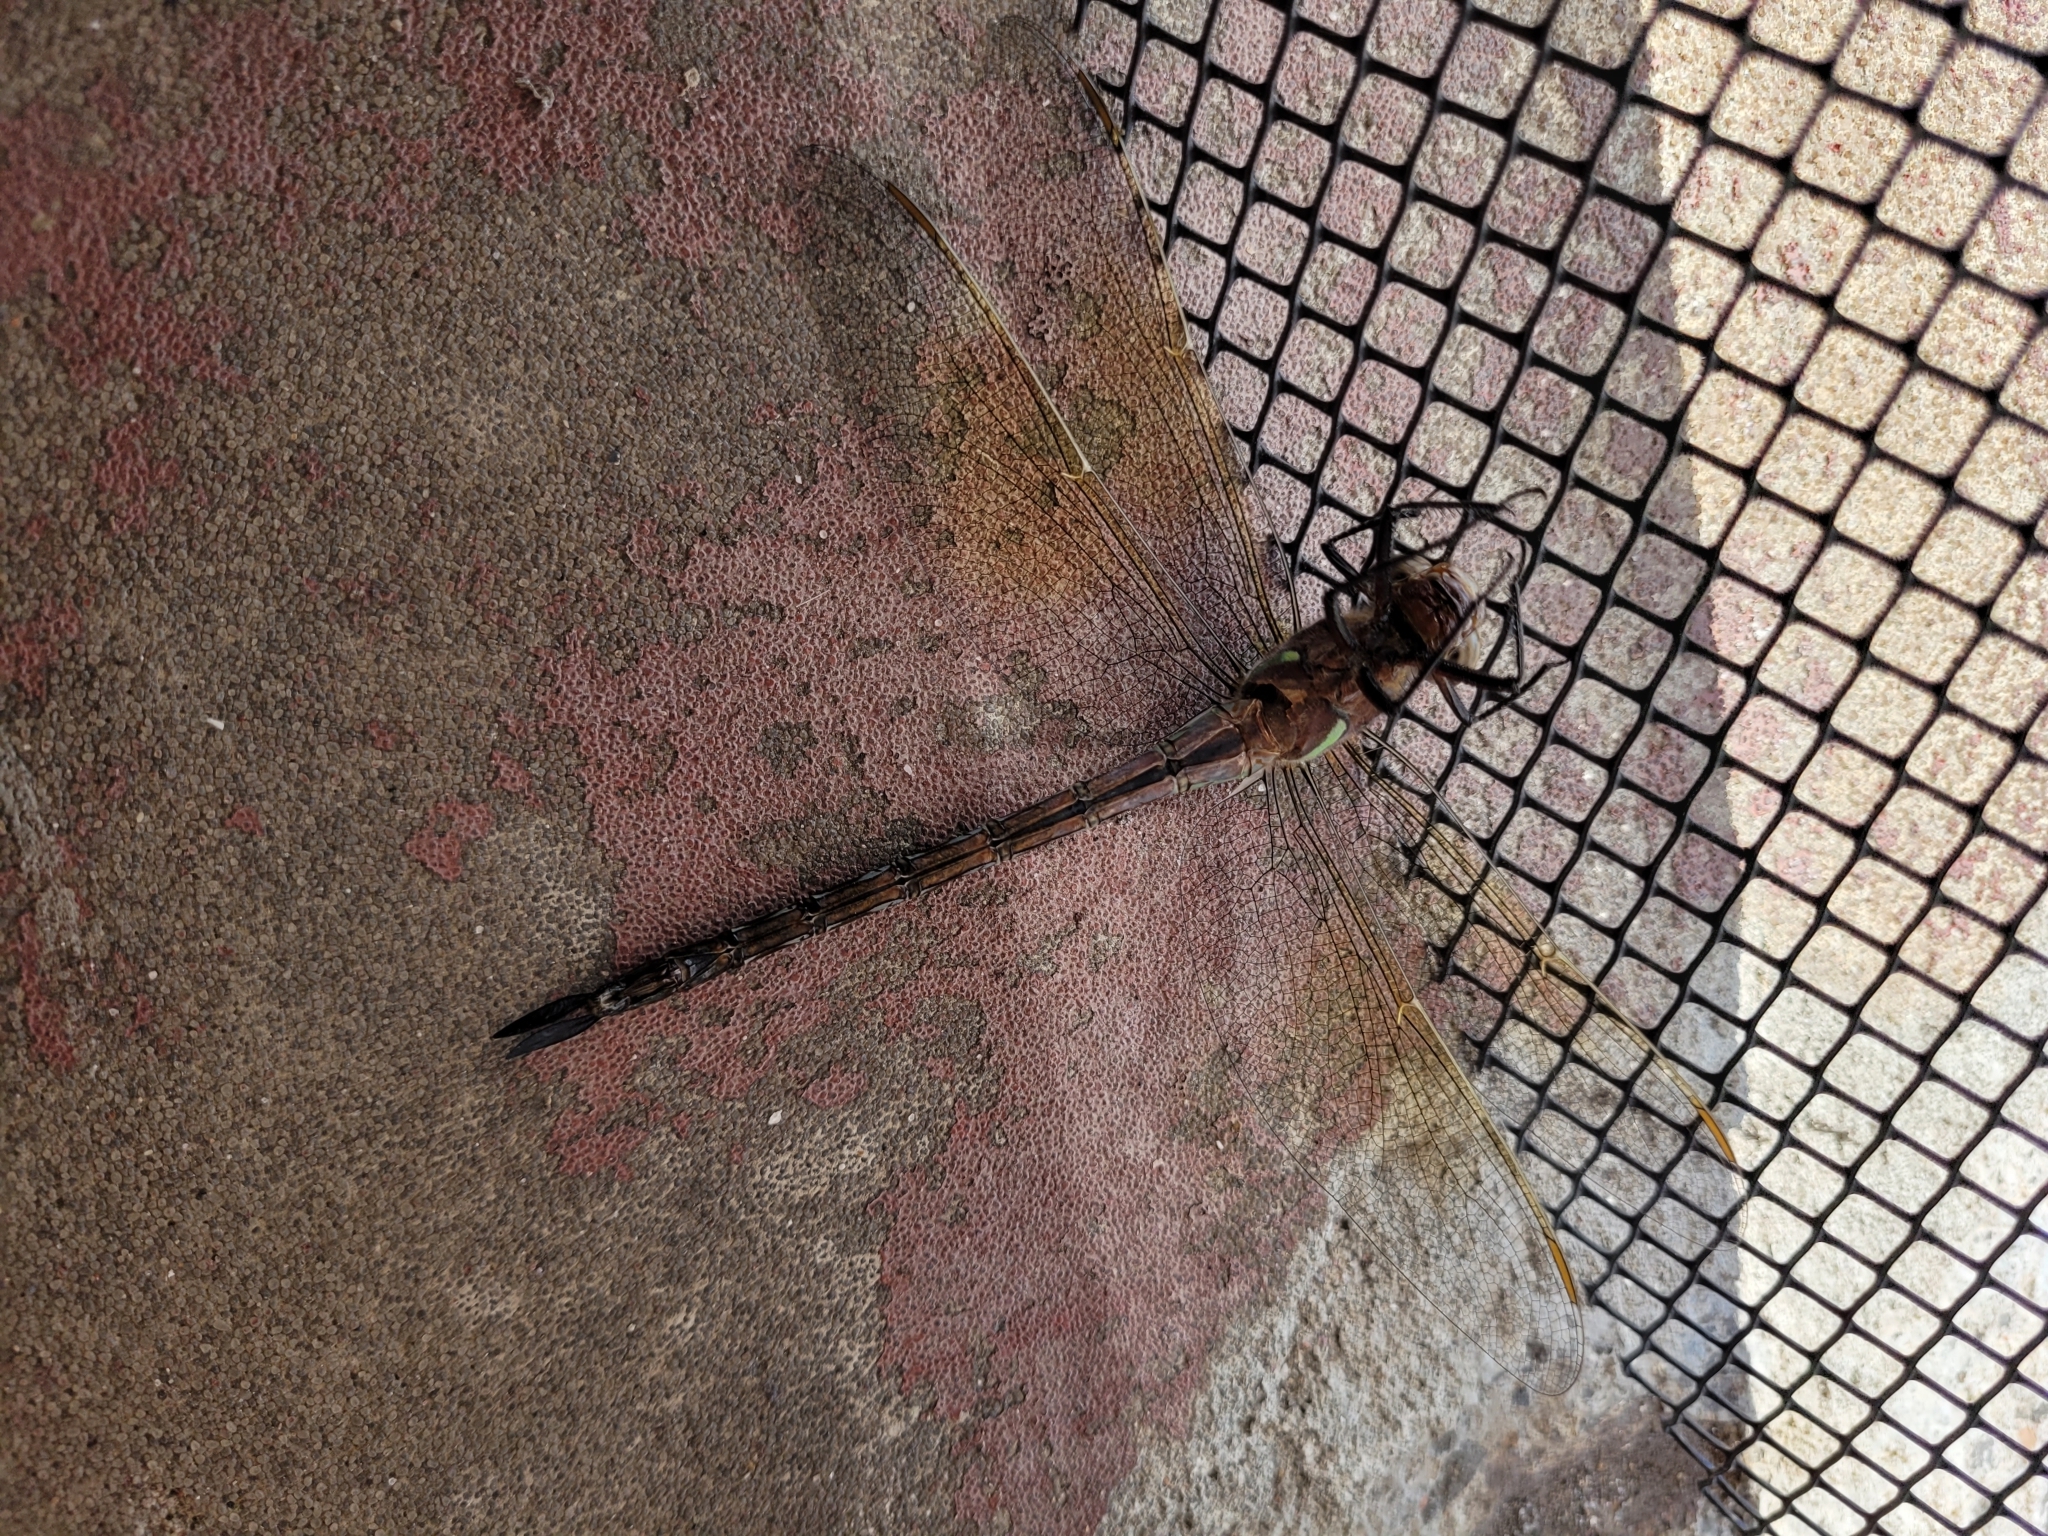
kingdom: Animalia
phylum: Arthropoda
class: Insecta
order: Odonata
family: Aeshnidae
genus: Epiaeschna
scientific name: Epiaeschna heros
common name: Swamp darner
